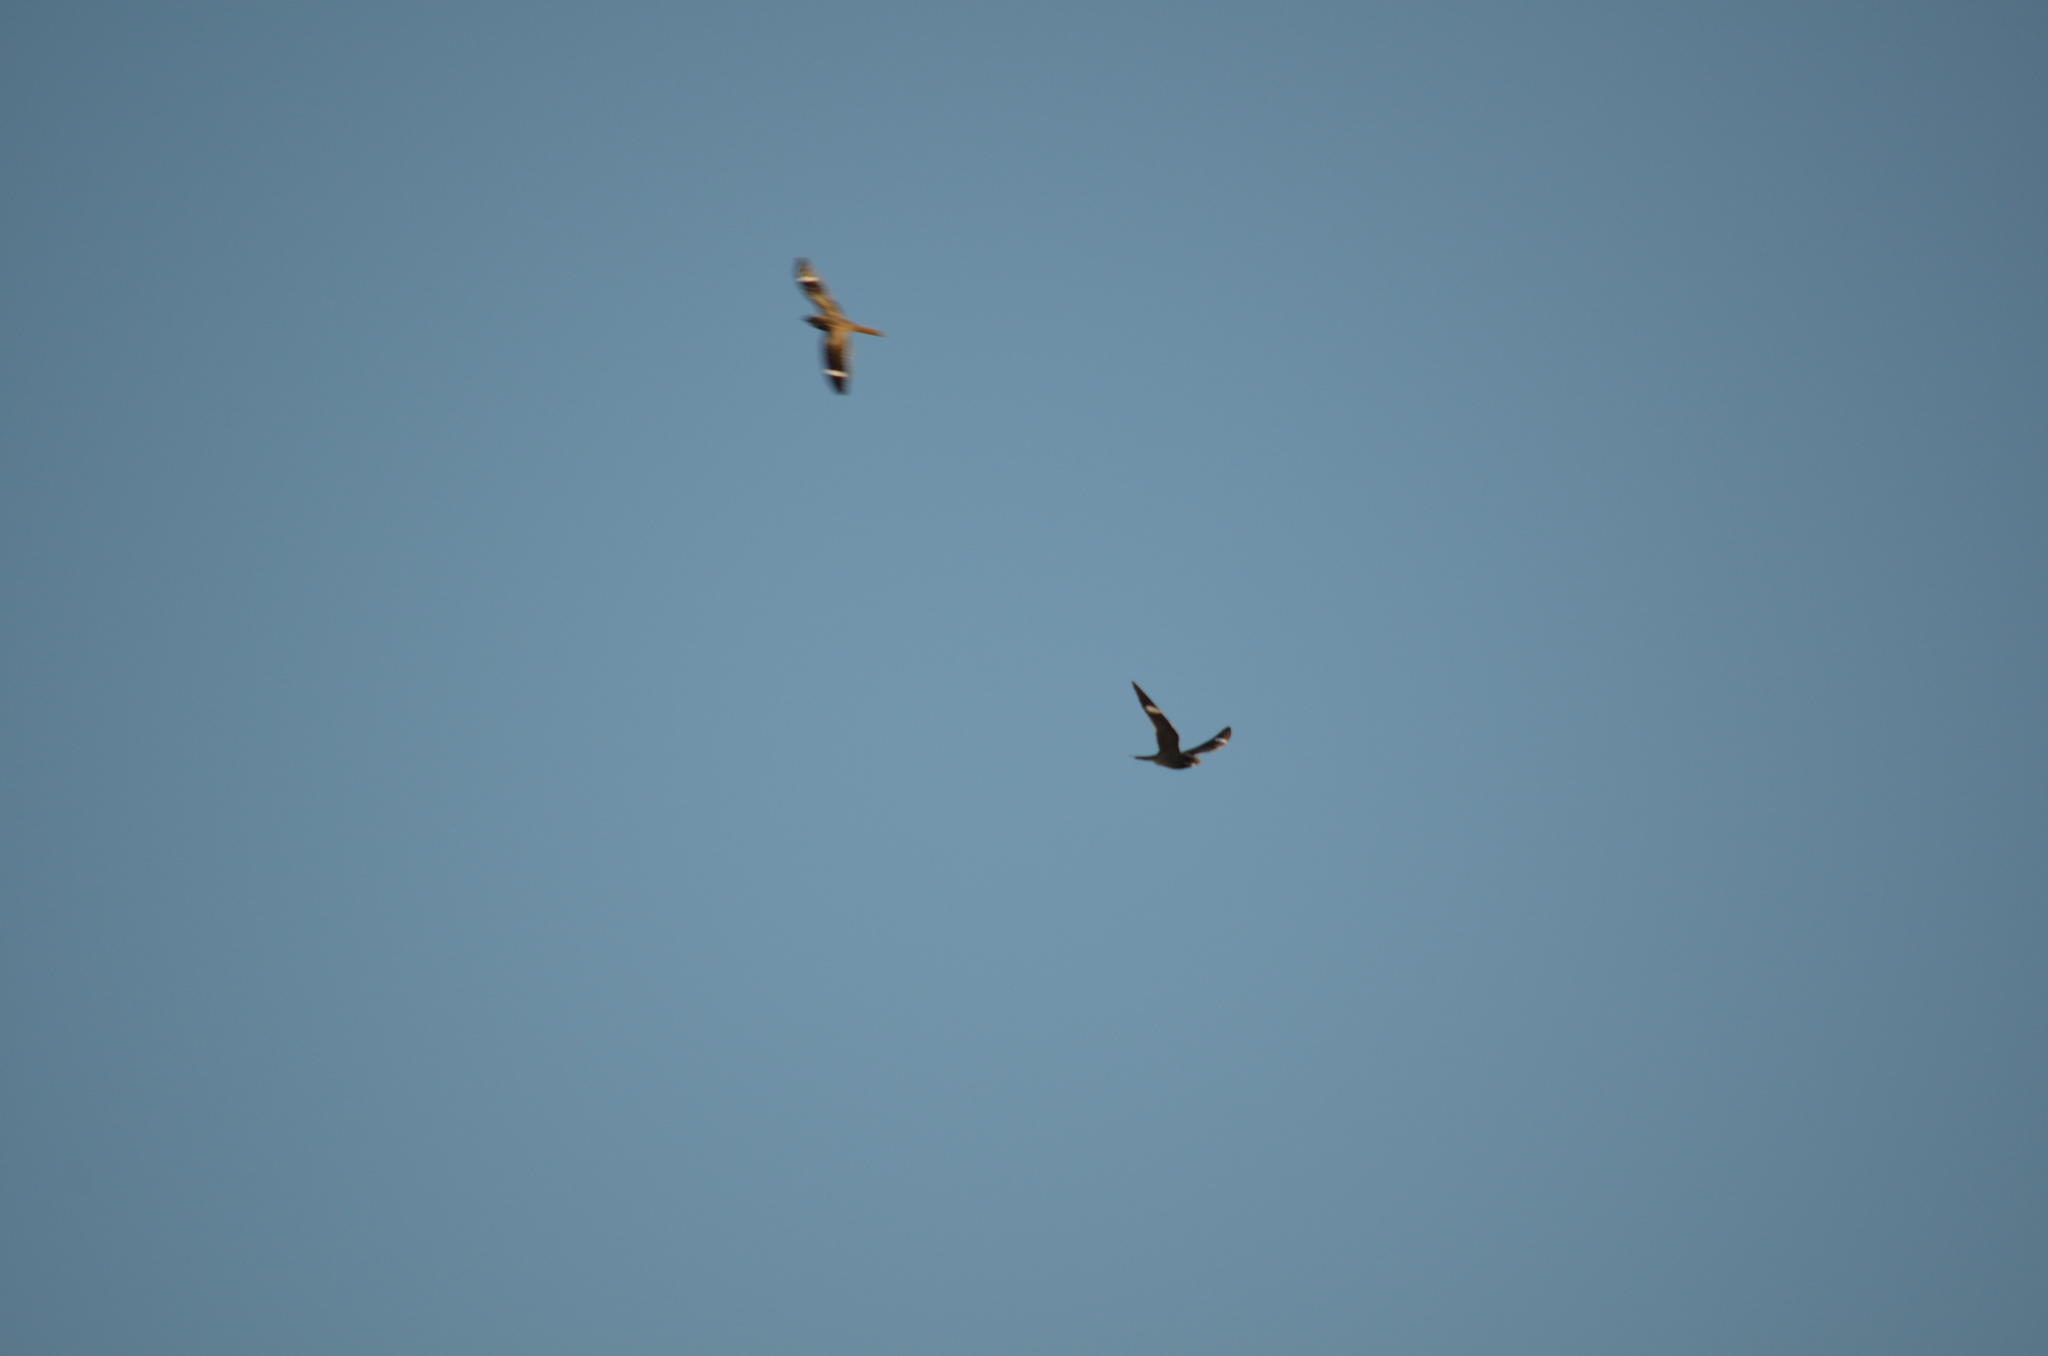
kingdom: Animalia
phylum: Chordata
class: Aves
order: Caprimulgiformes
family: Caprimulgidae
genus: Chordeiles
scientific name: Chordeiles minor
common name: Common nighthawk
